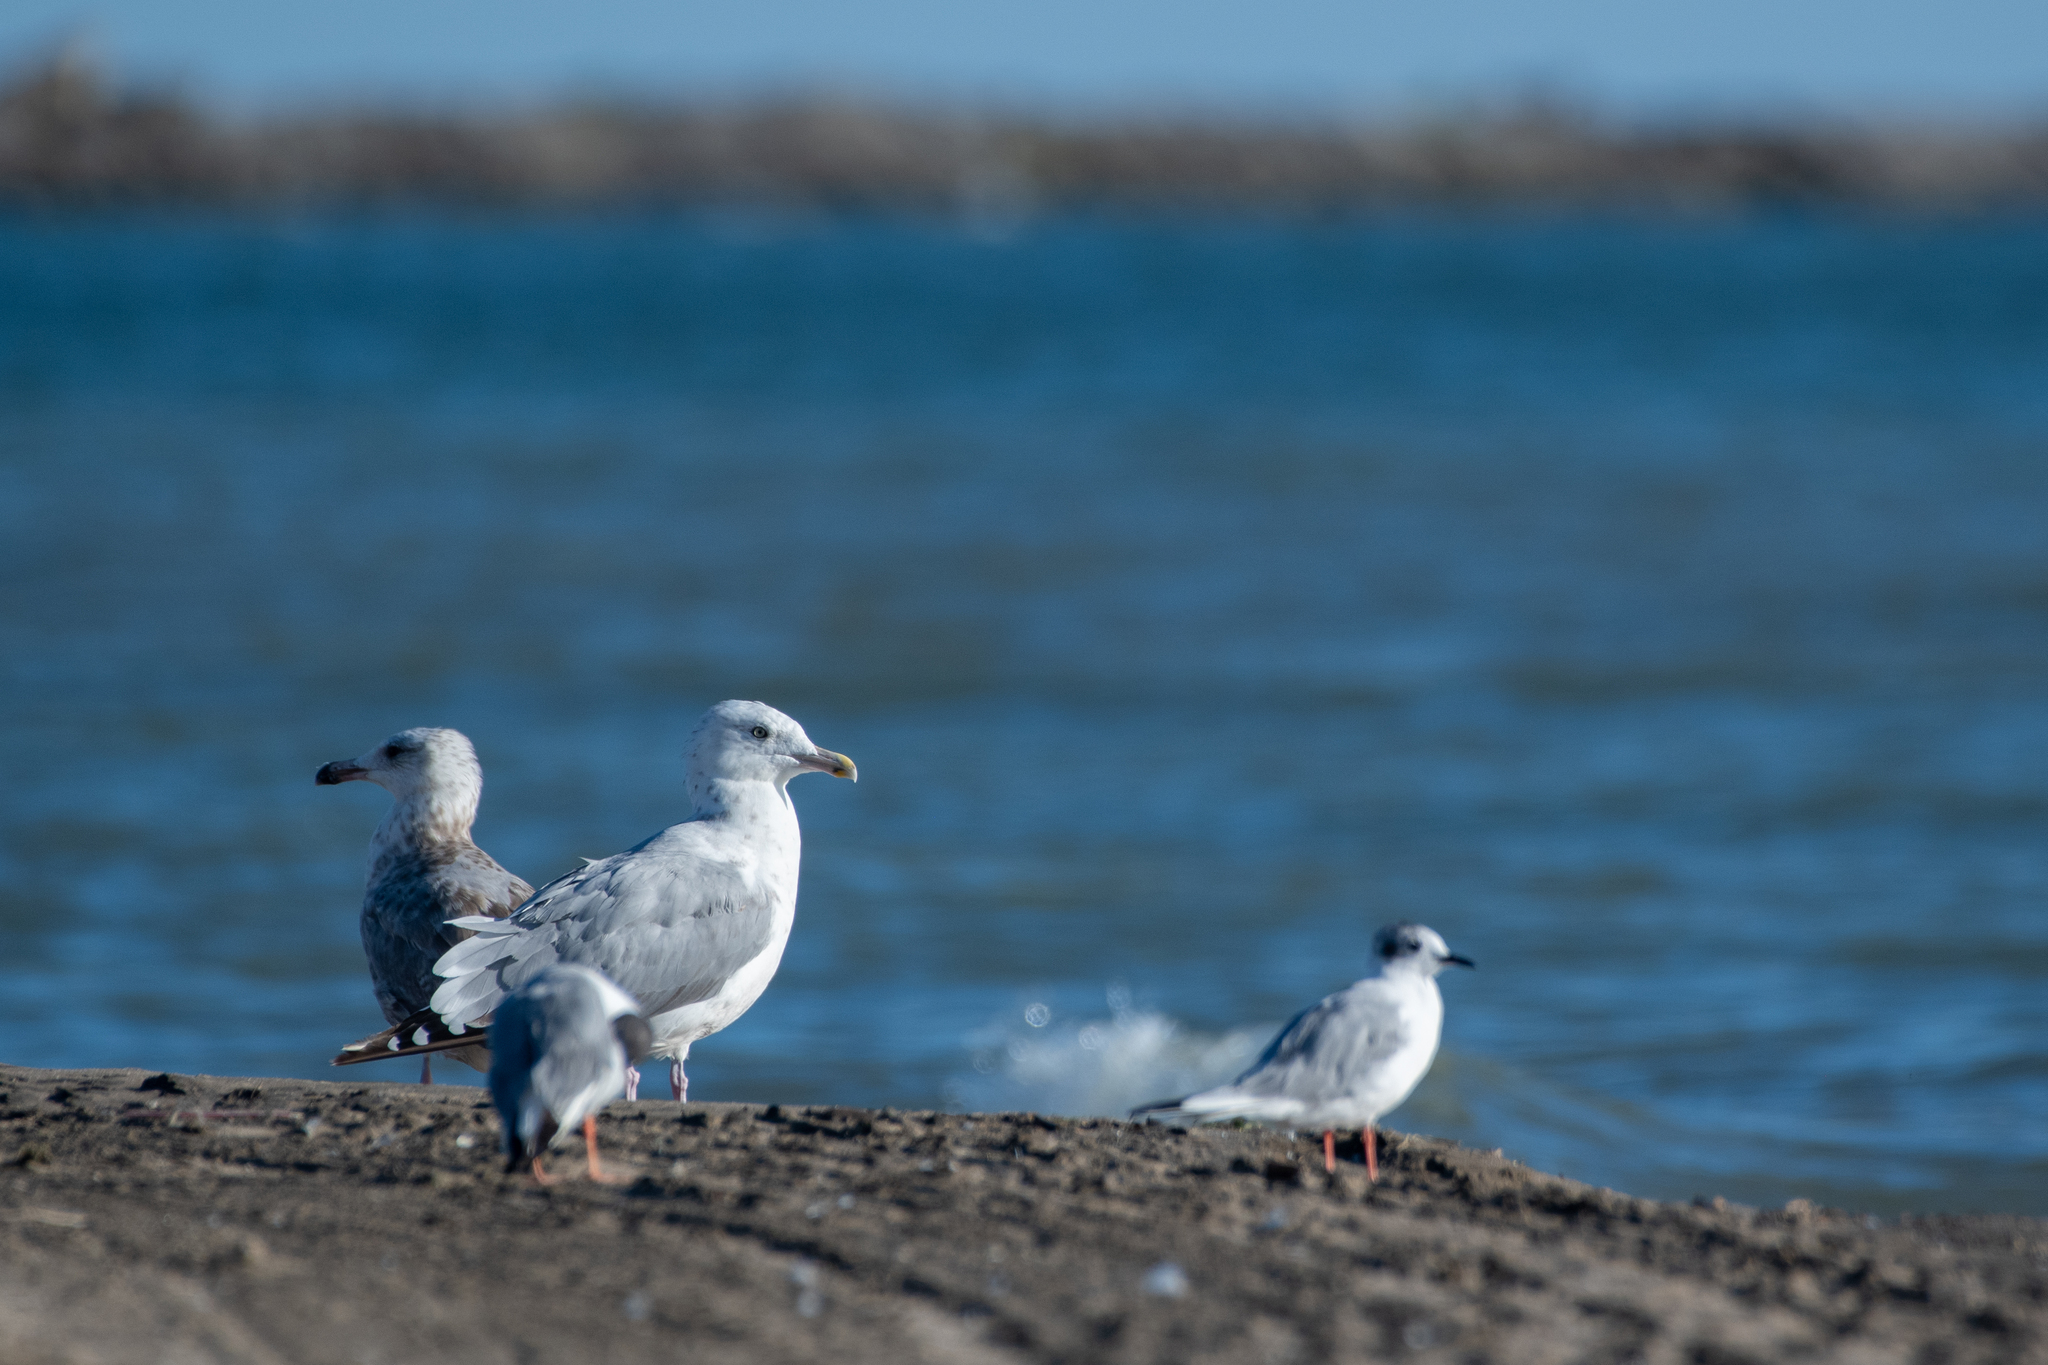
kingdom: Animalia
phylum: Chordata
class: Aves
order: Charadriiformes
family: Laridae
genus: Larus
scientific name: Larus argentatus
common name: Herring gull
